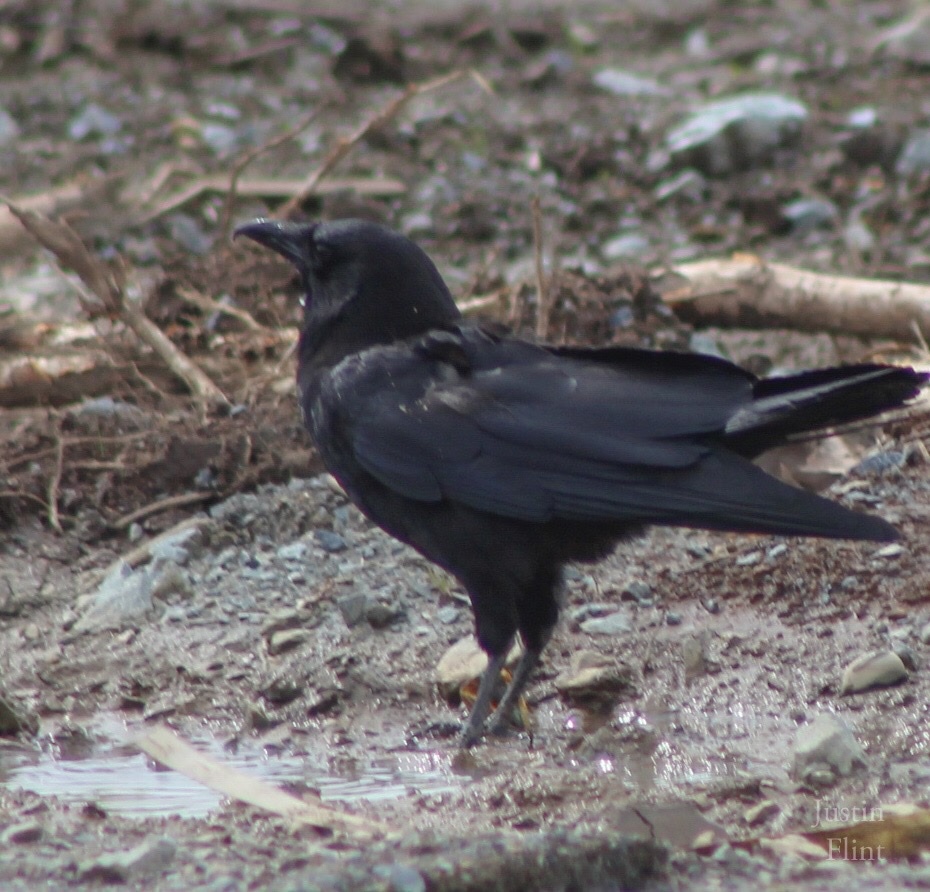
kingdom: Animalia
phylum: Chordata
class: Aves
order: Passeriformes
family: Corvidae
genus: Corvus
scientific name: Corvus brachyrhynchos
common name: American crow
